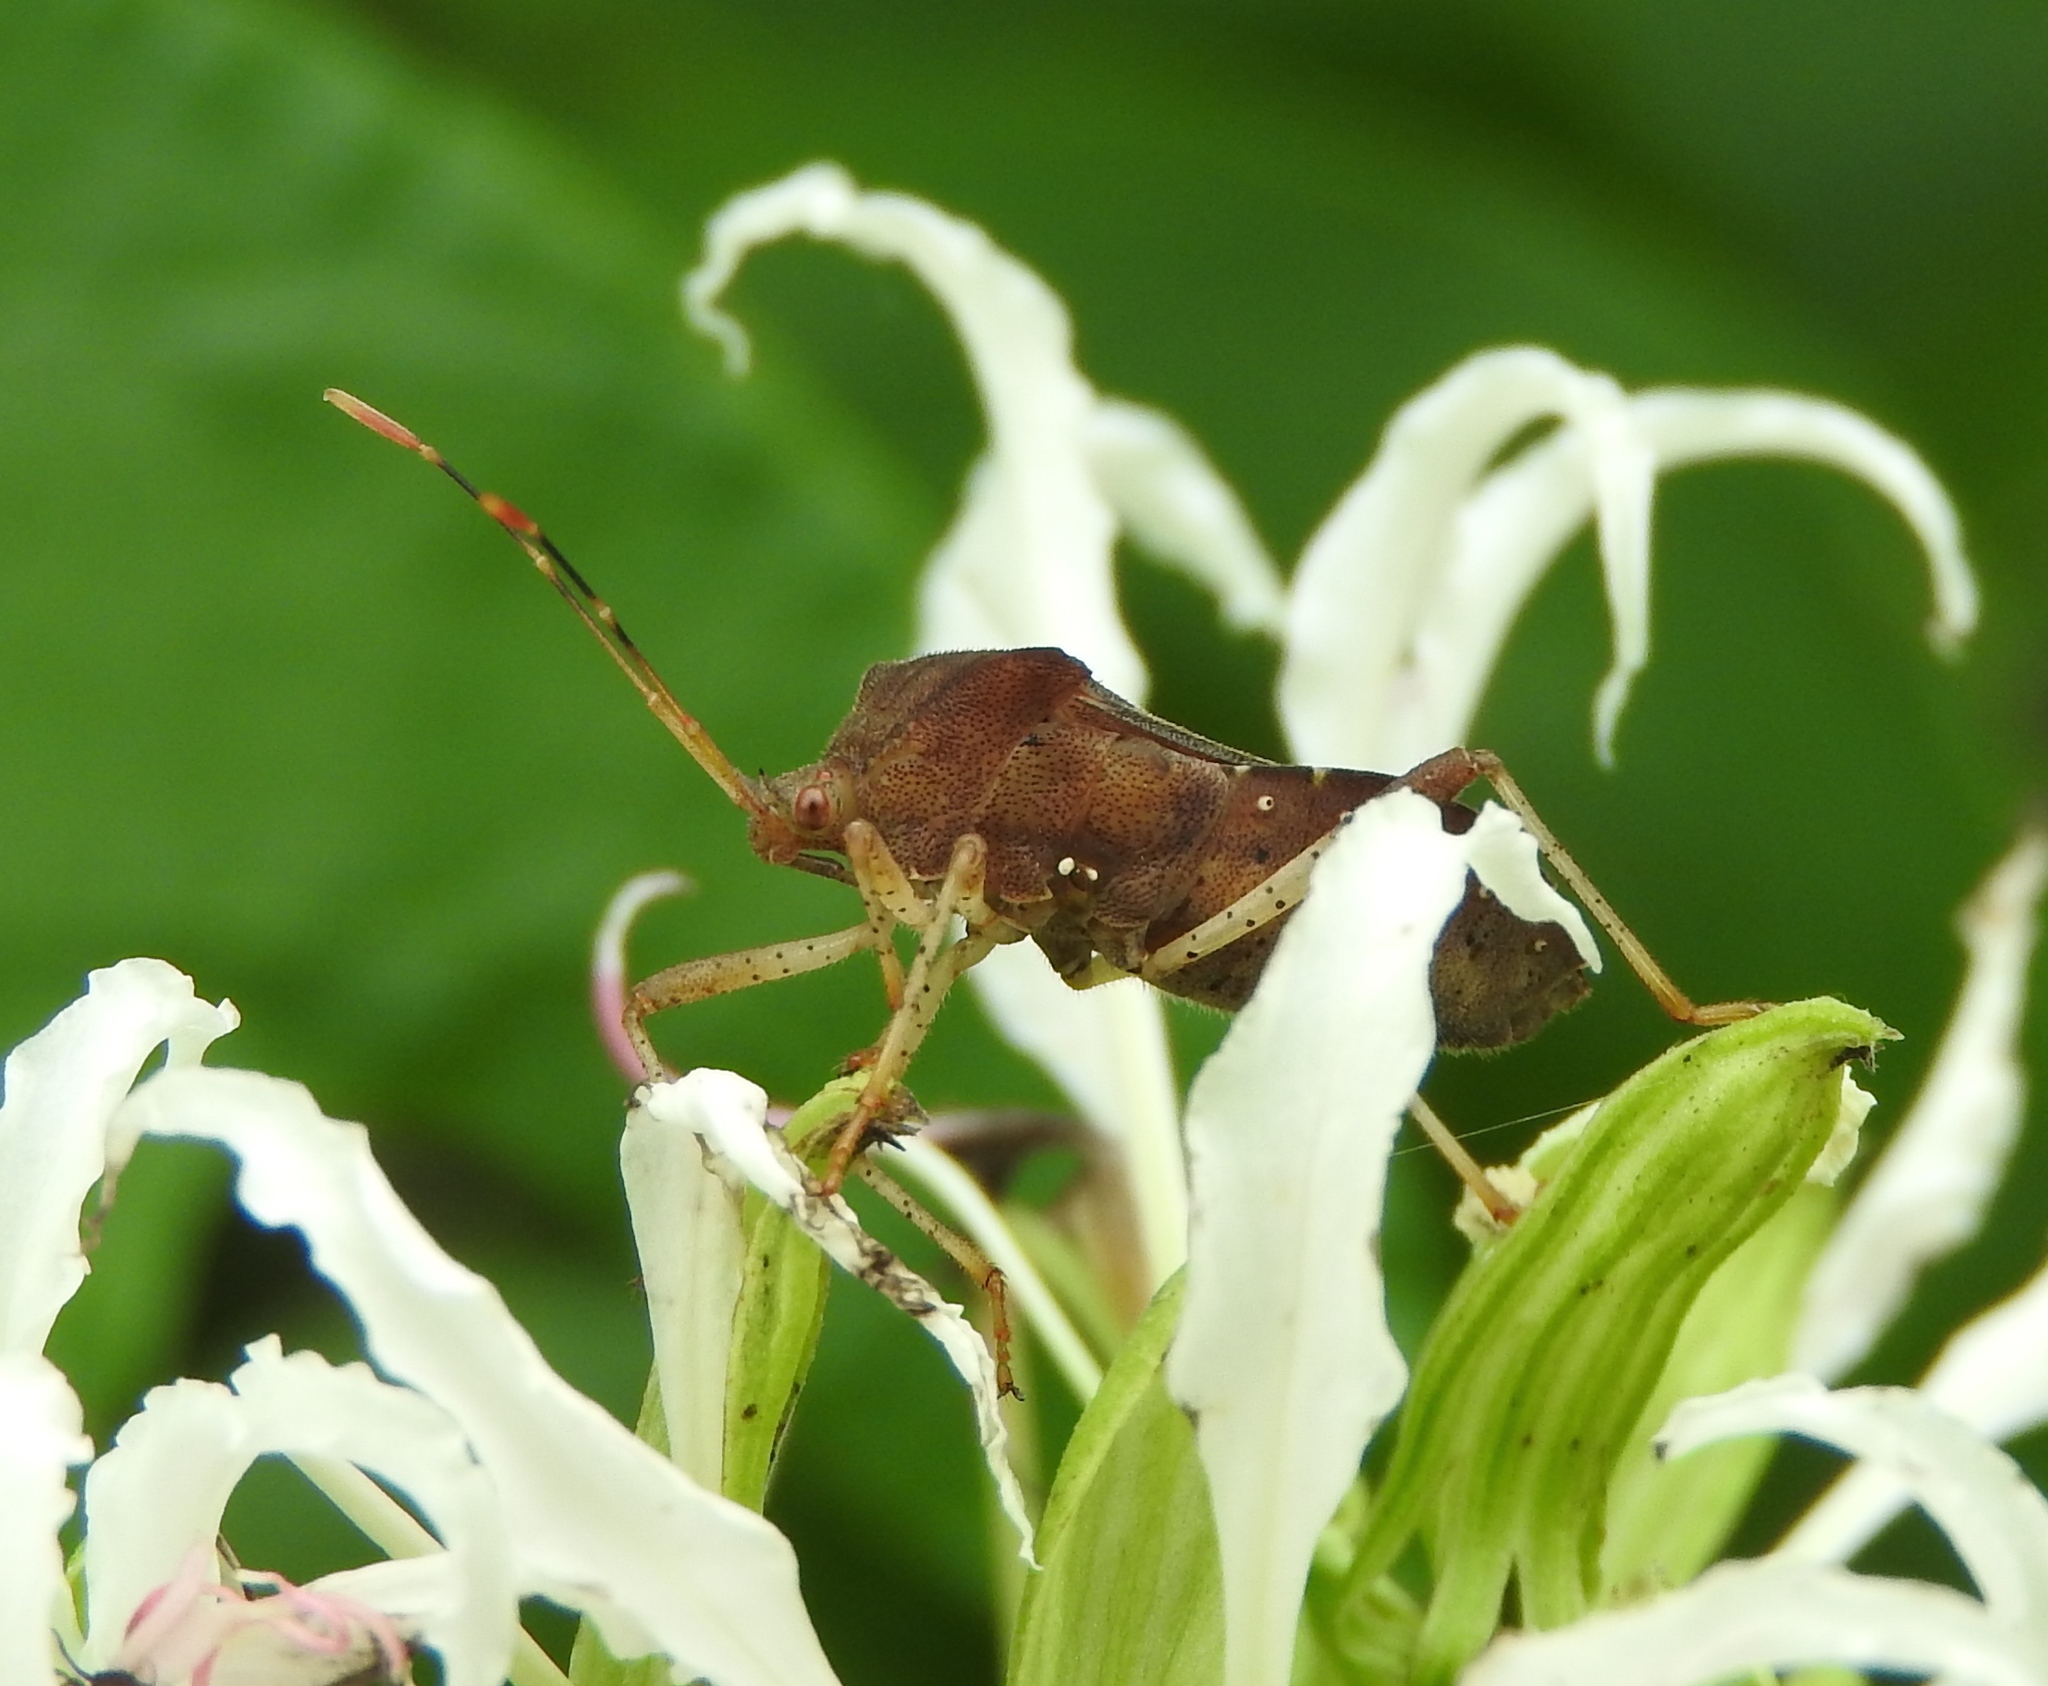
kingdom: Animalia
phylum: Arthropoda
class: Insecta
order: Hemiptera
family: Coreidae
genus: Anasa
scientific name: Anasa scorbutica
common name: Squash bug
